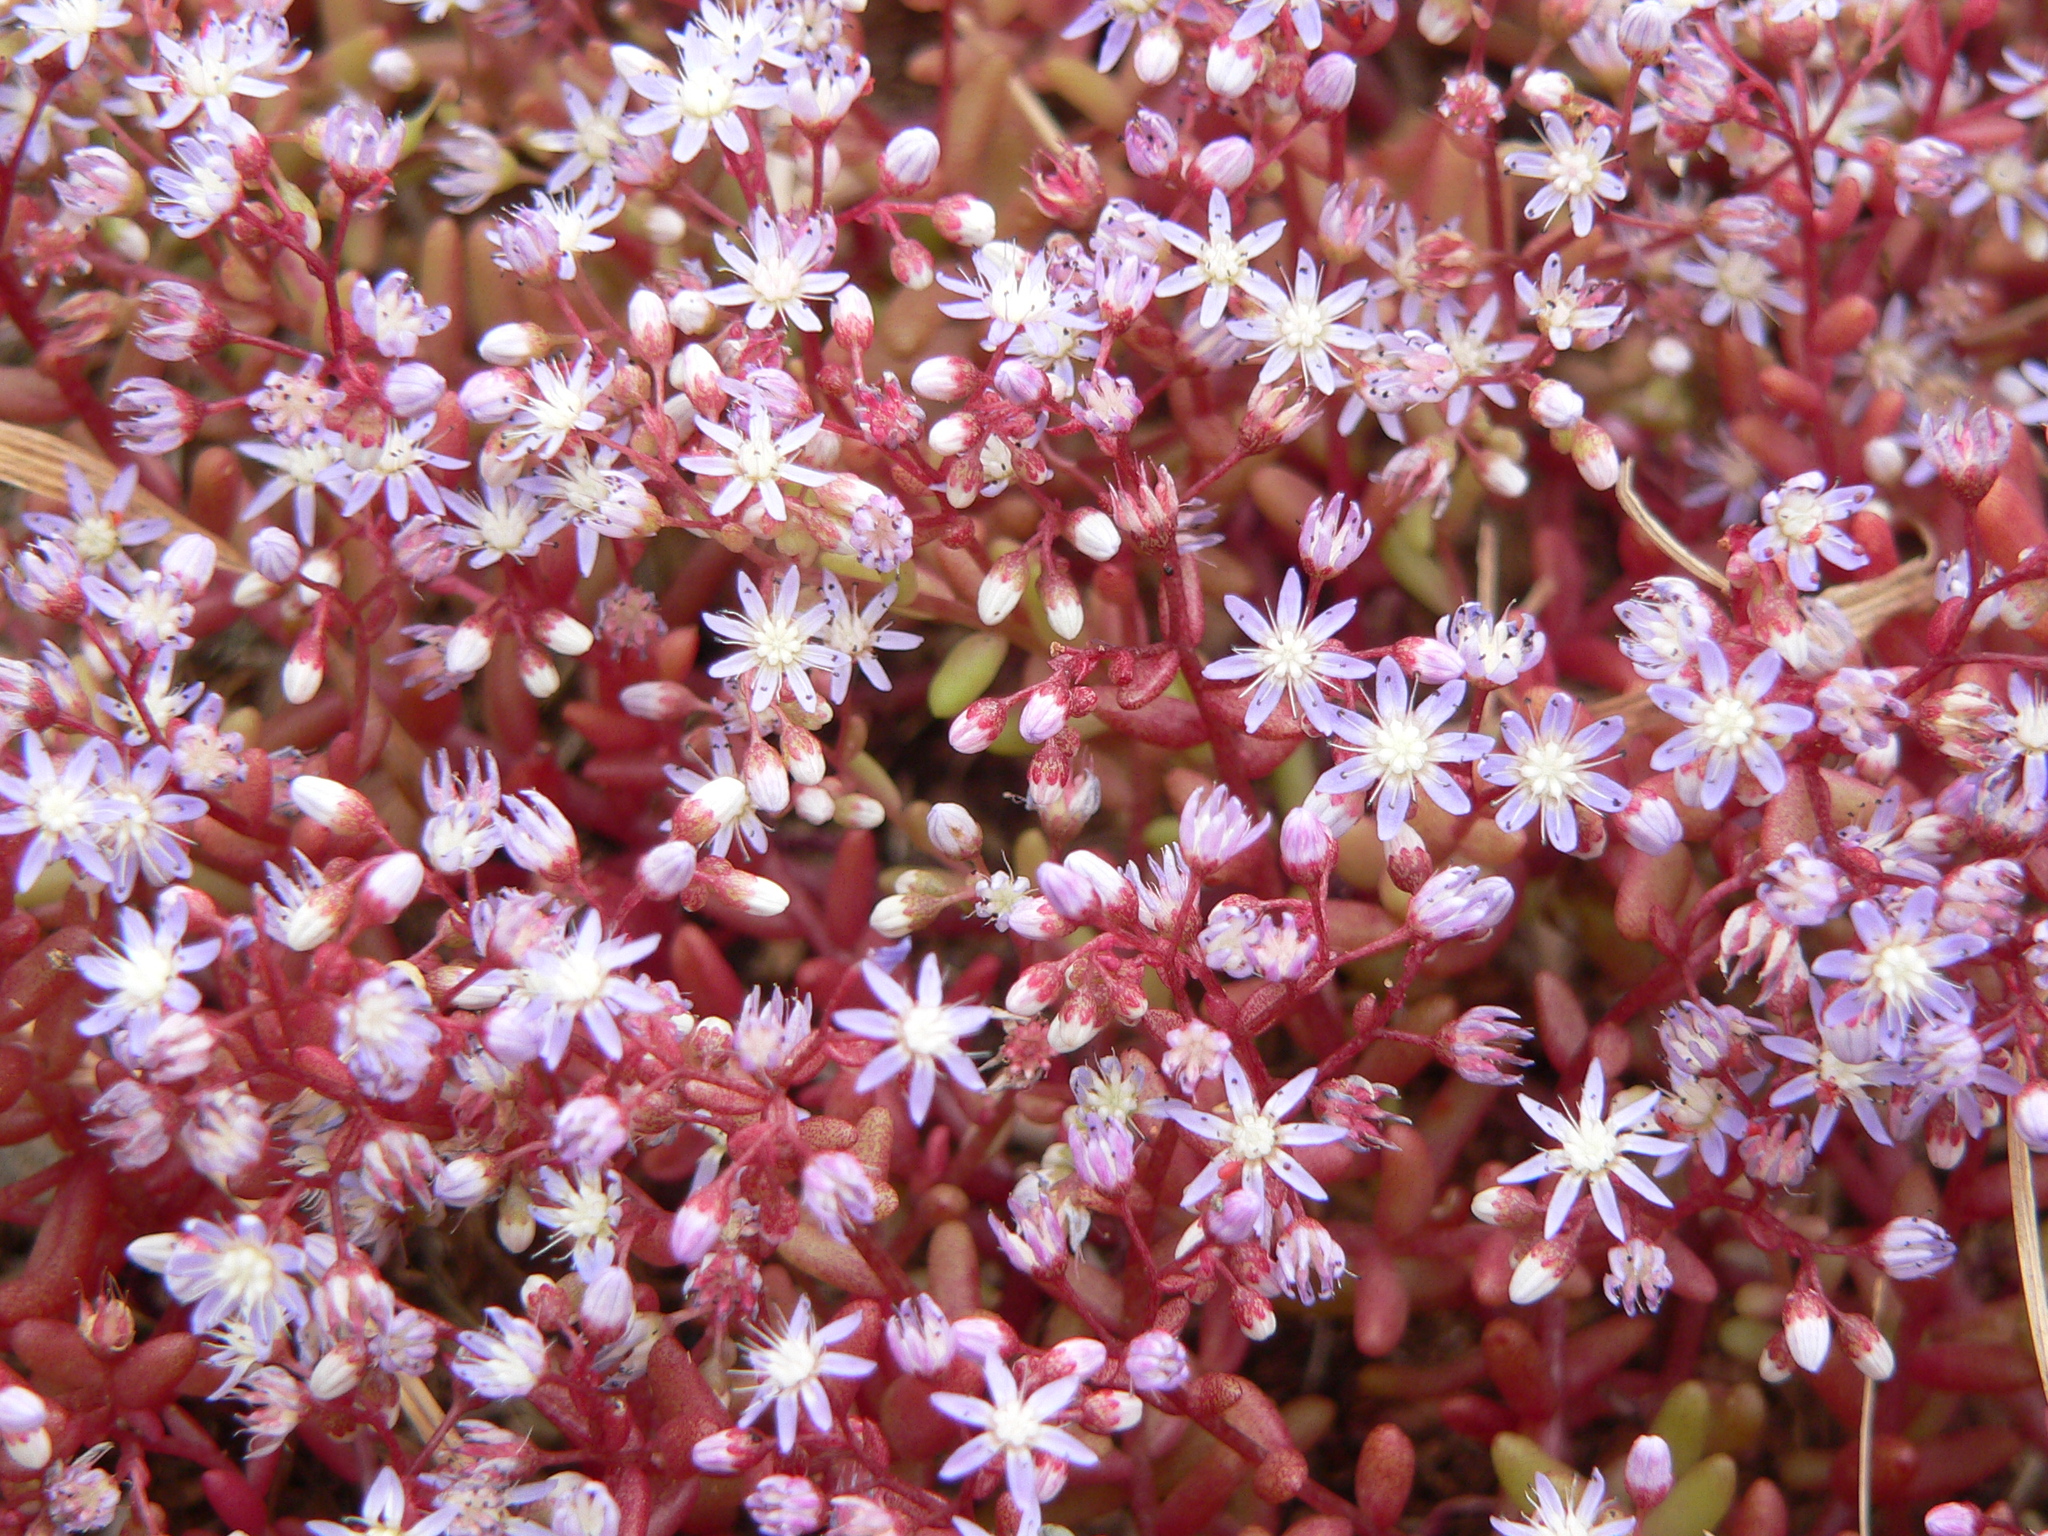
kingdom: Plantae
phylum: Tracheophyta
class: Magnoliopsida
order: Saxifragales
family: Crassulaceae
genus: Sedum
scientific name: Sedum caeruleum
